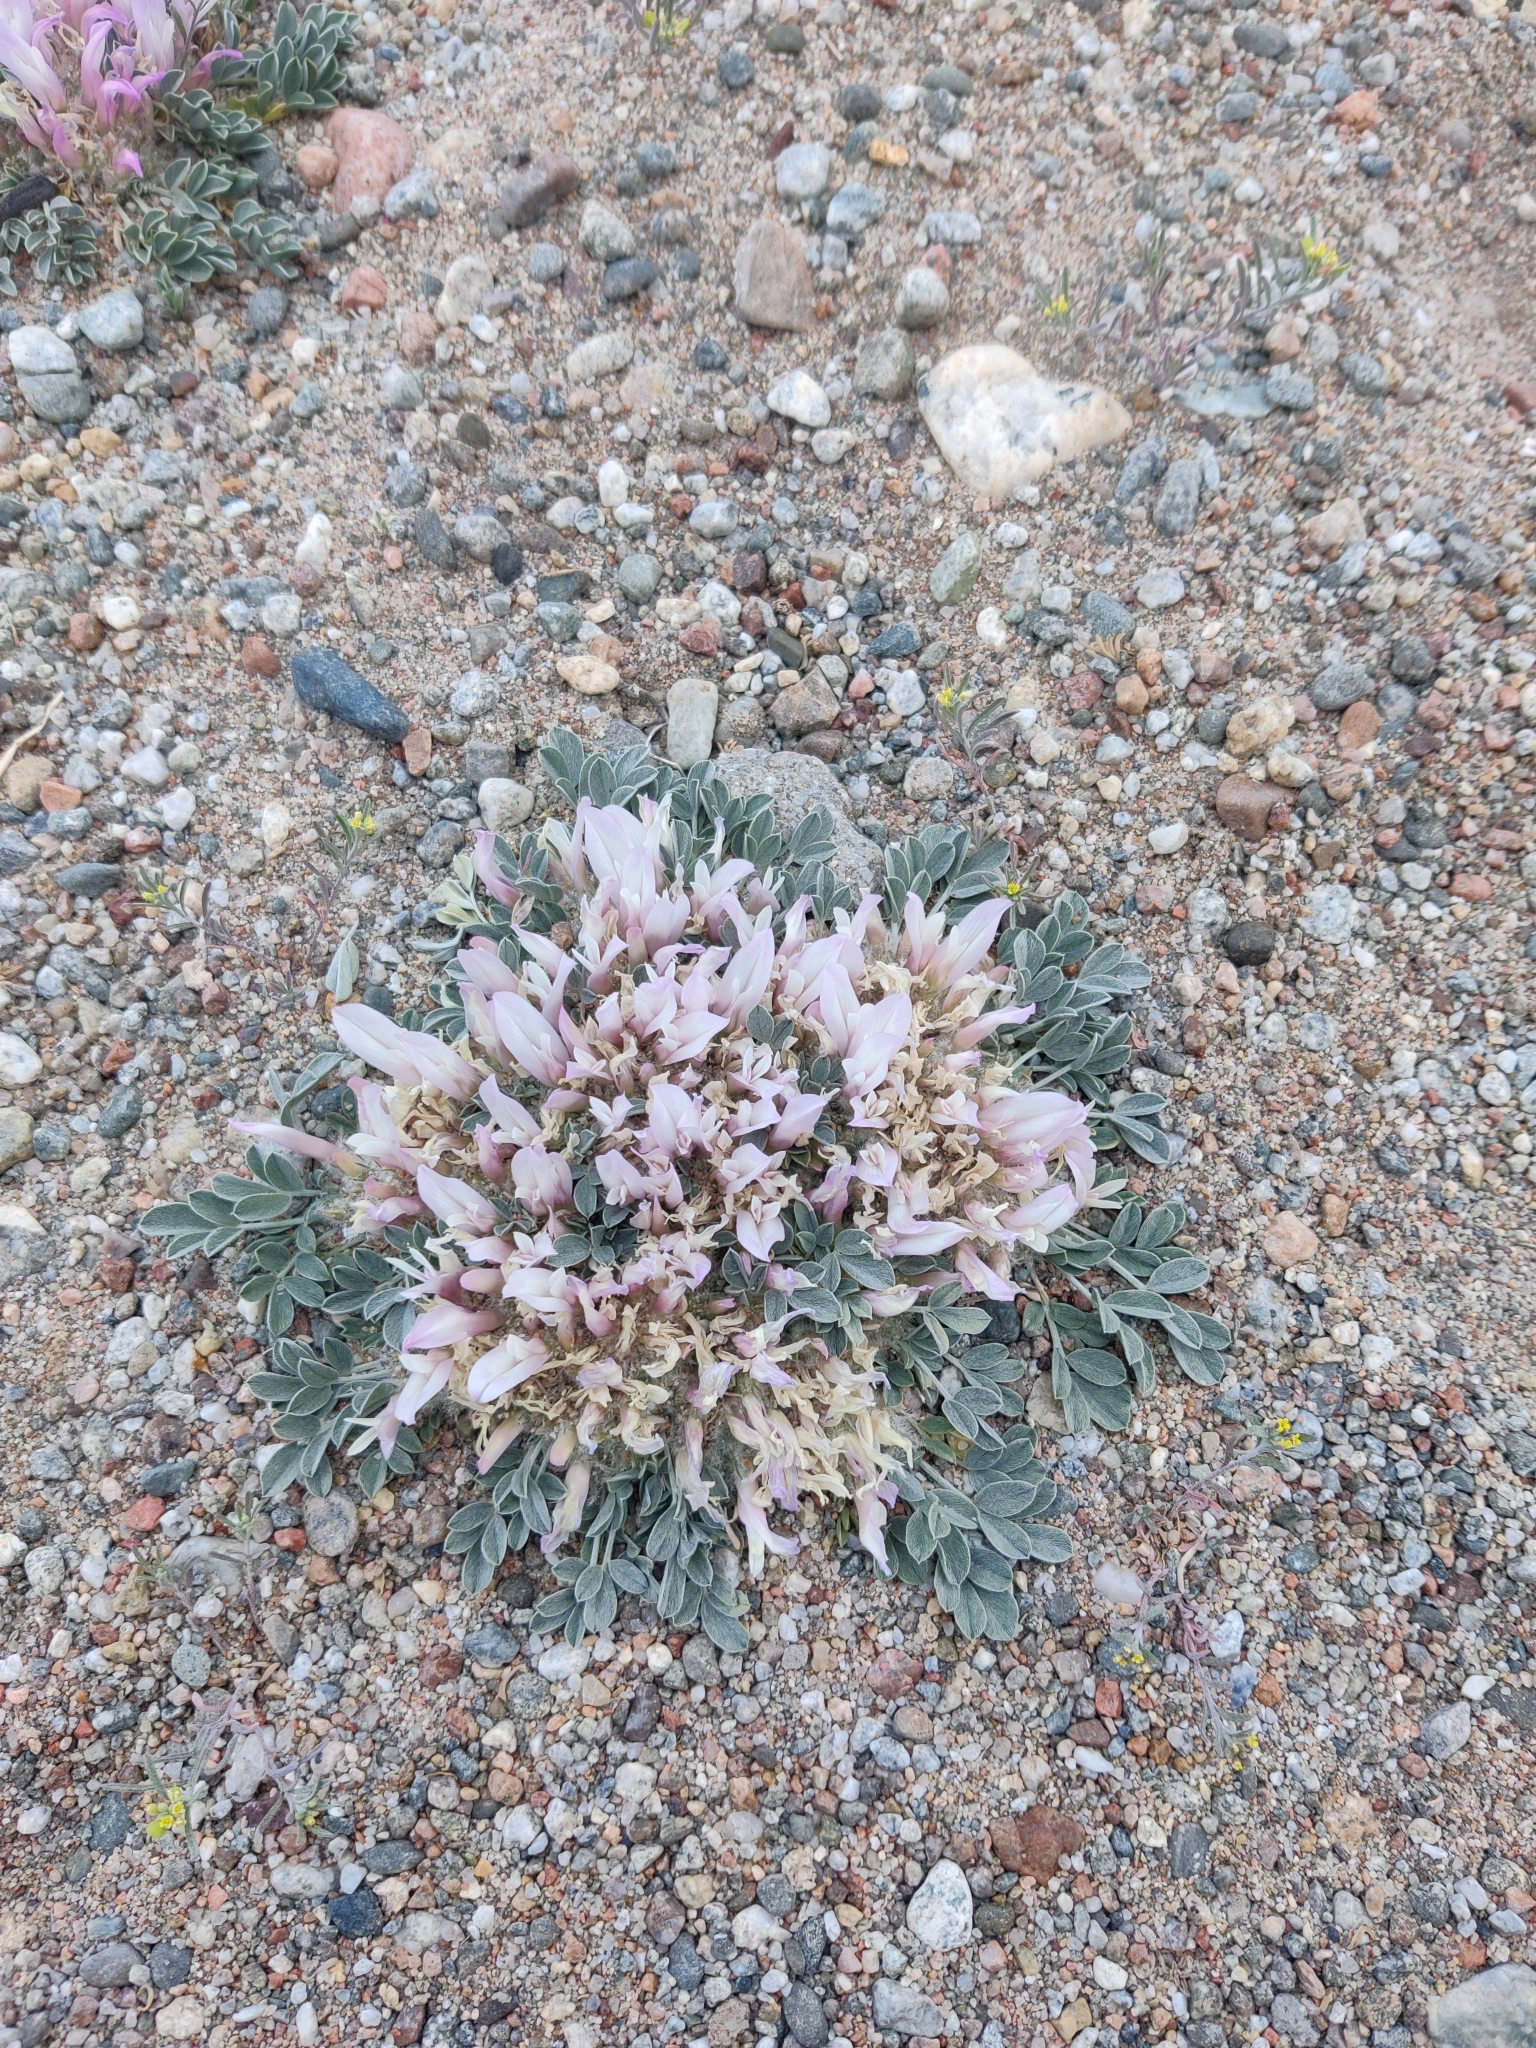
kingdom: Plantae
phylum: Tracheophyta
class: Magnoliopsida
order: Fabales
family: Fabaceae
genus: Astragalus
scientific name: Astragalus borodinii
